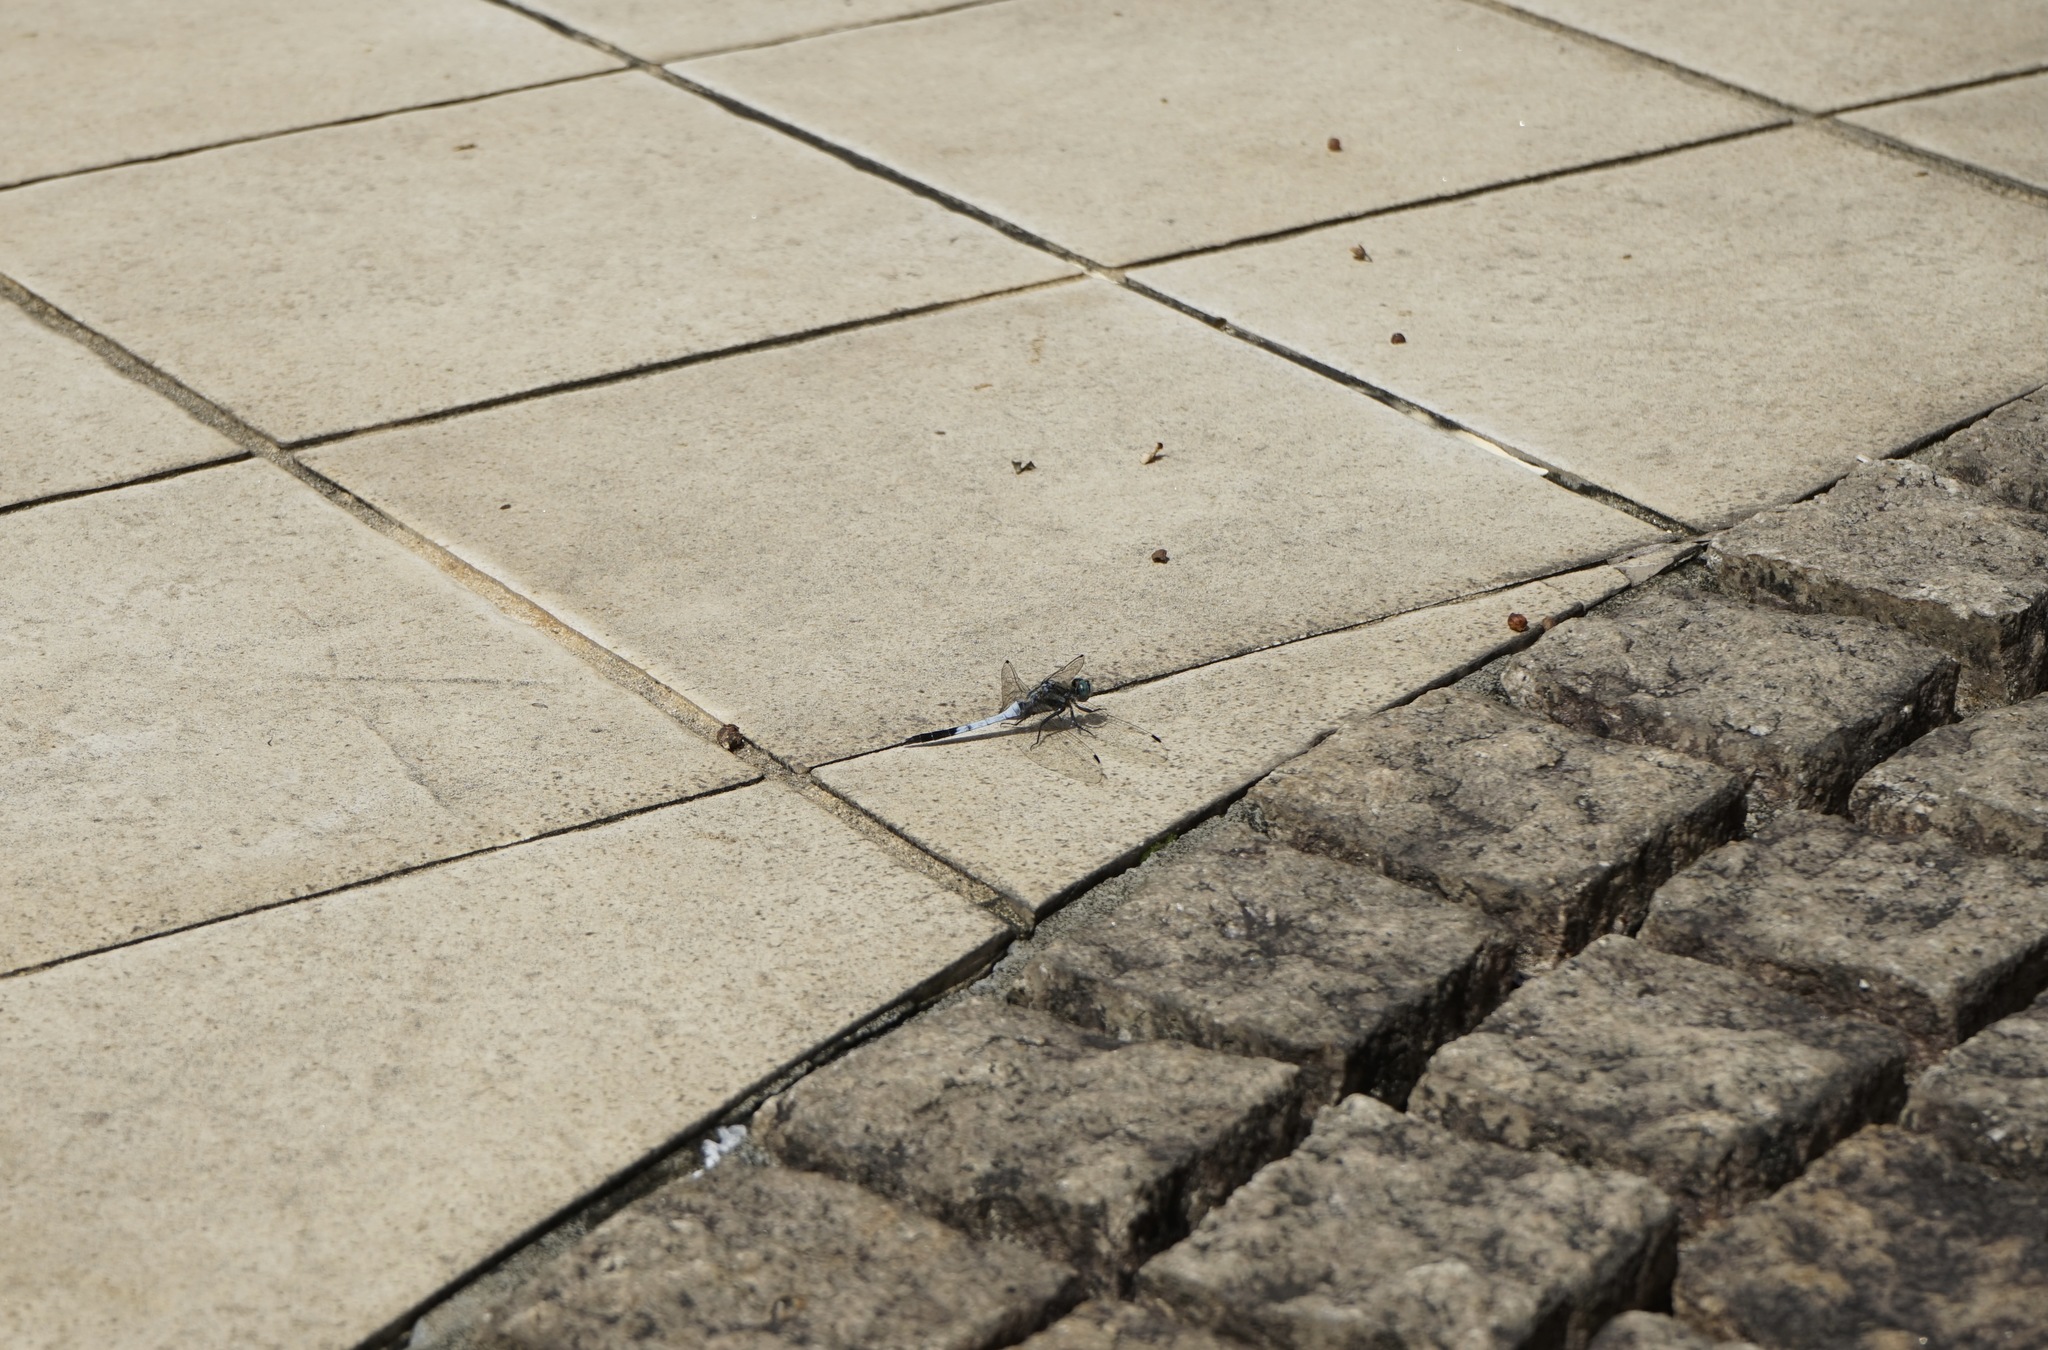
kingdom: Animalia
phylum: Arthropoda
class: Insecta
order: Odonata
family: Libellulidae
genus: Orthetrum
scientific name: Orthetrum albistylum
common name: White-tailed skimmer
